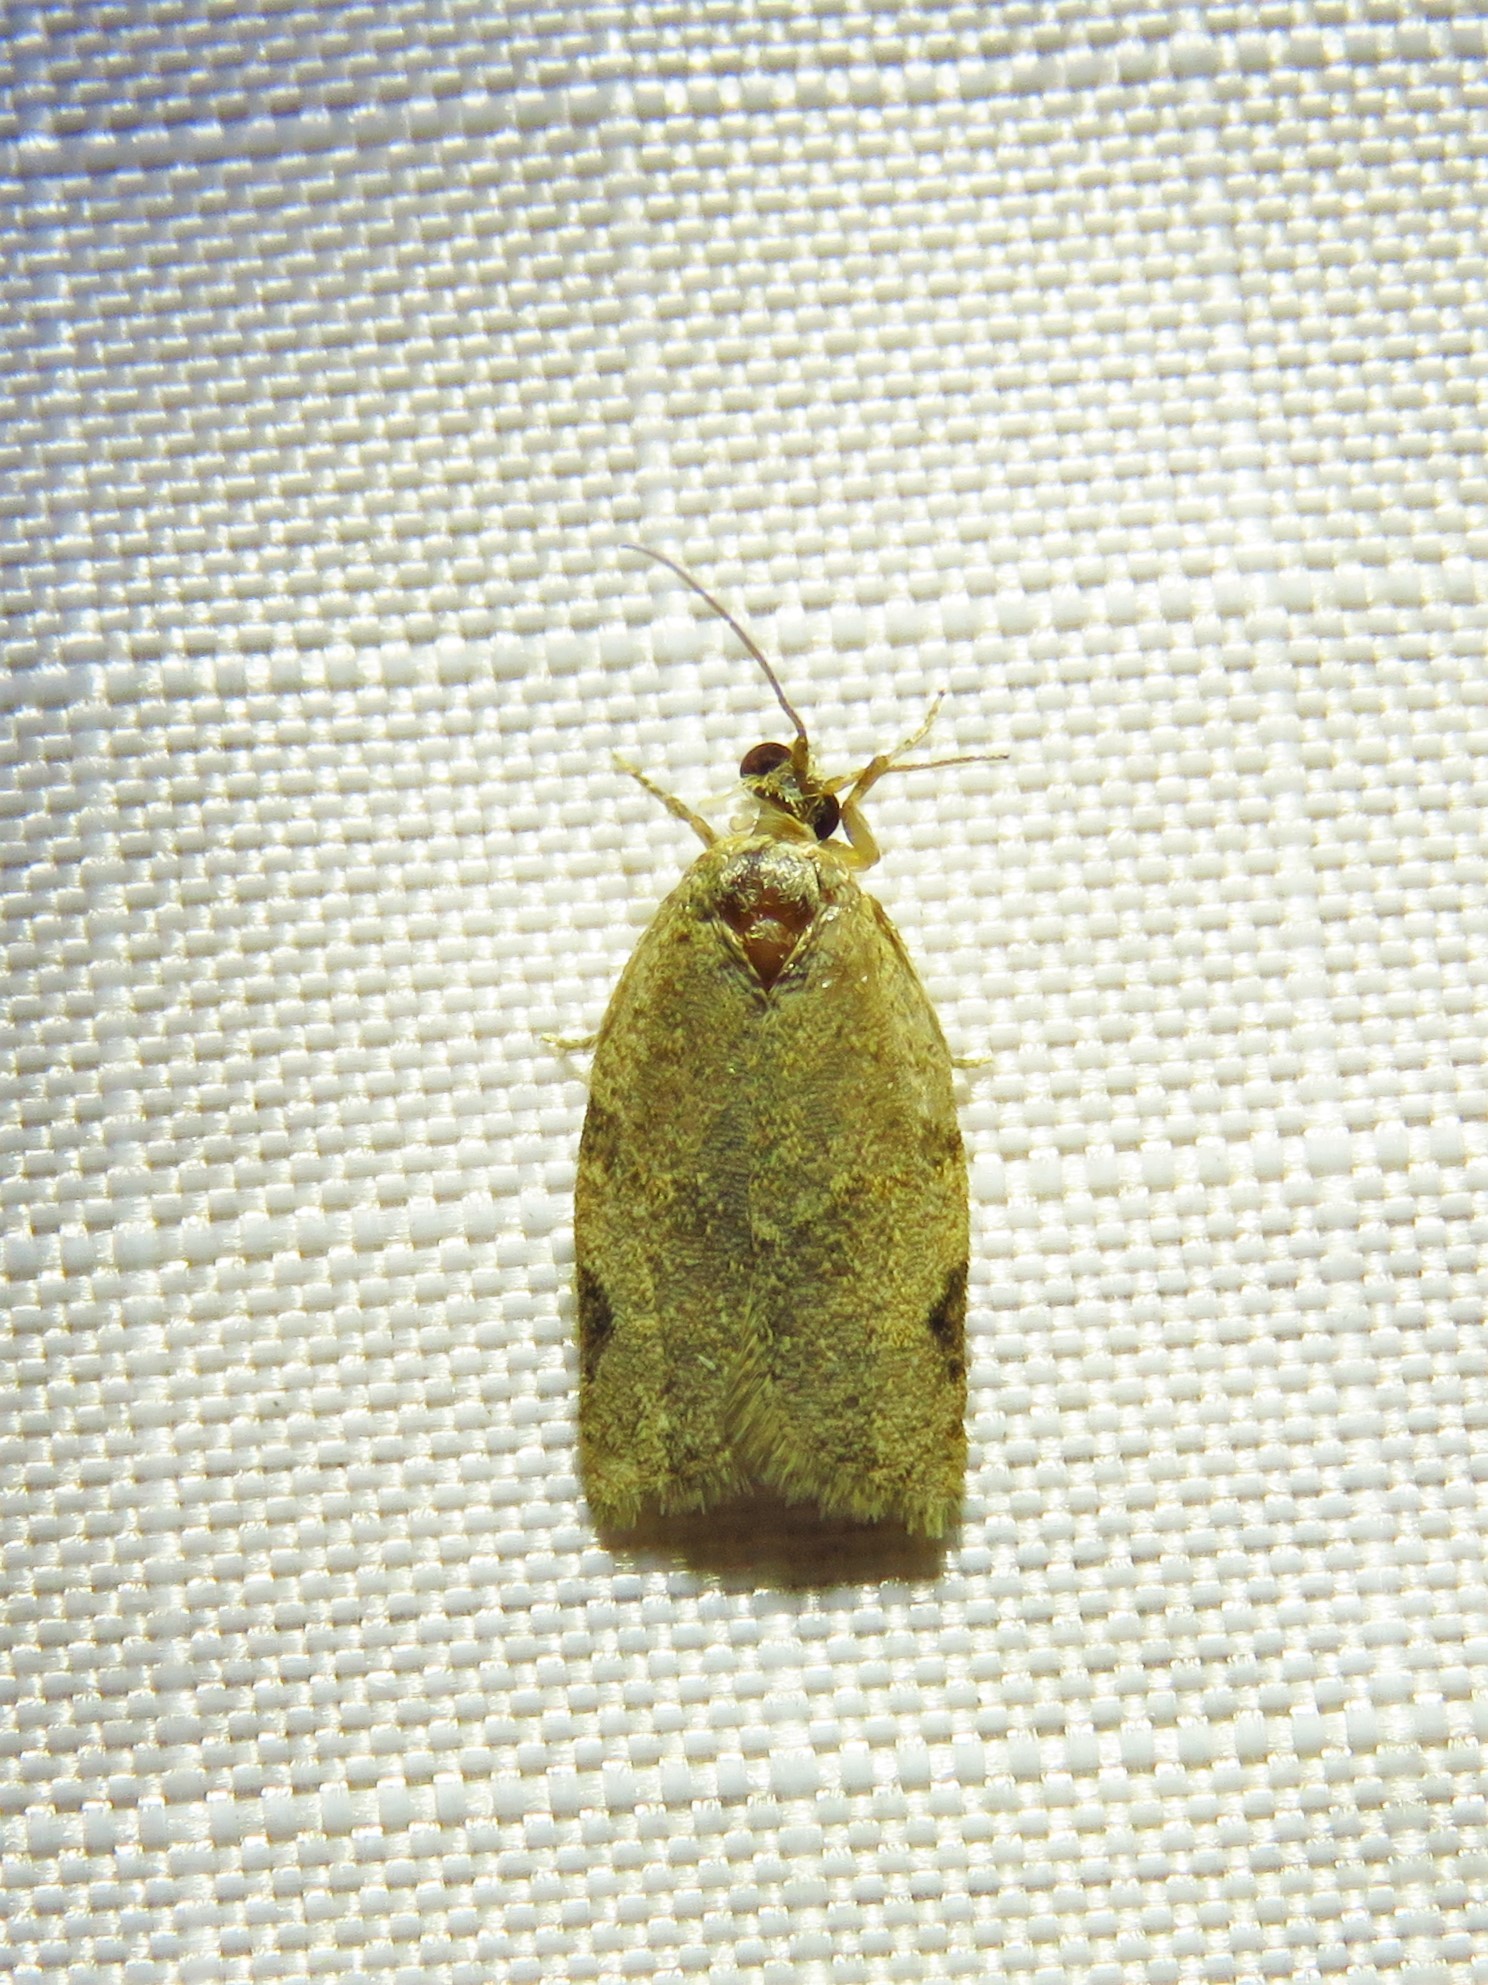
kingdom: Animalia
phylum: Arthropoda
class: Insecta
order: Lepidoptera
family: Tortricidae
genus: Clepsis
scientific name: Clepsis virescana
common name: Greenish apple moth
